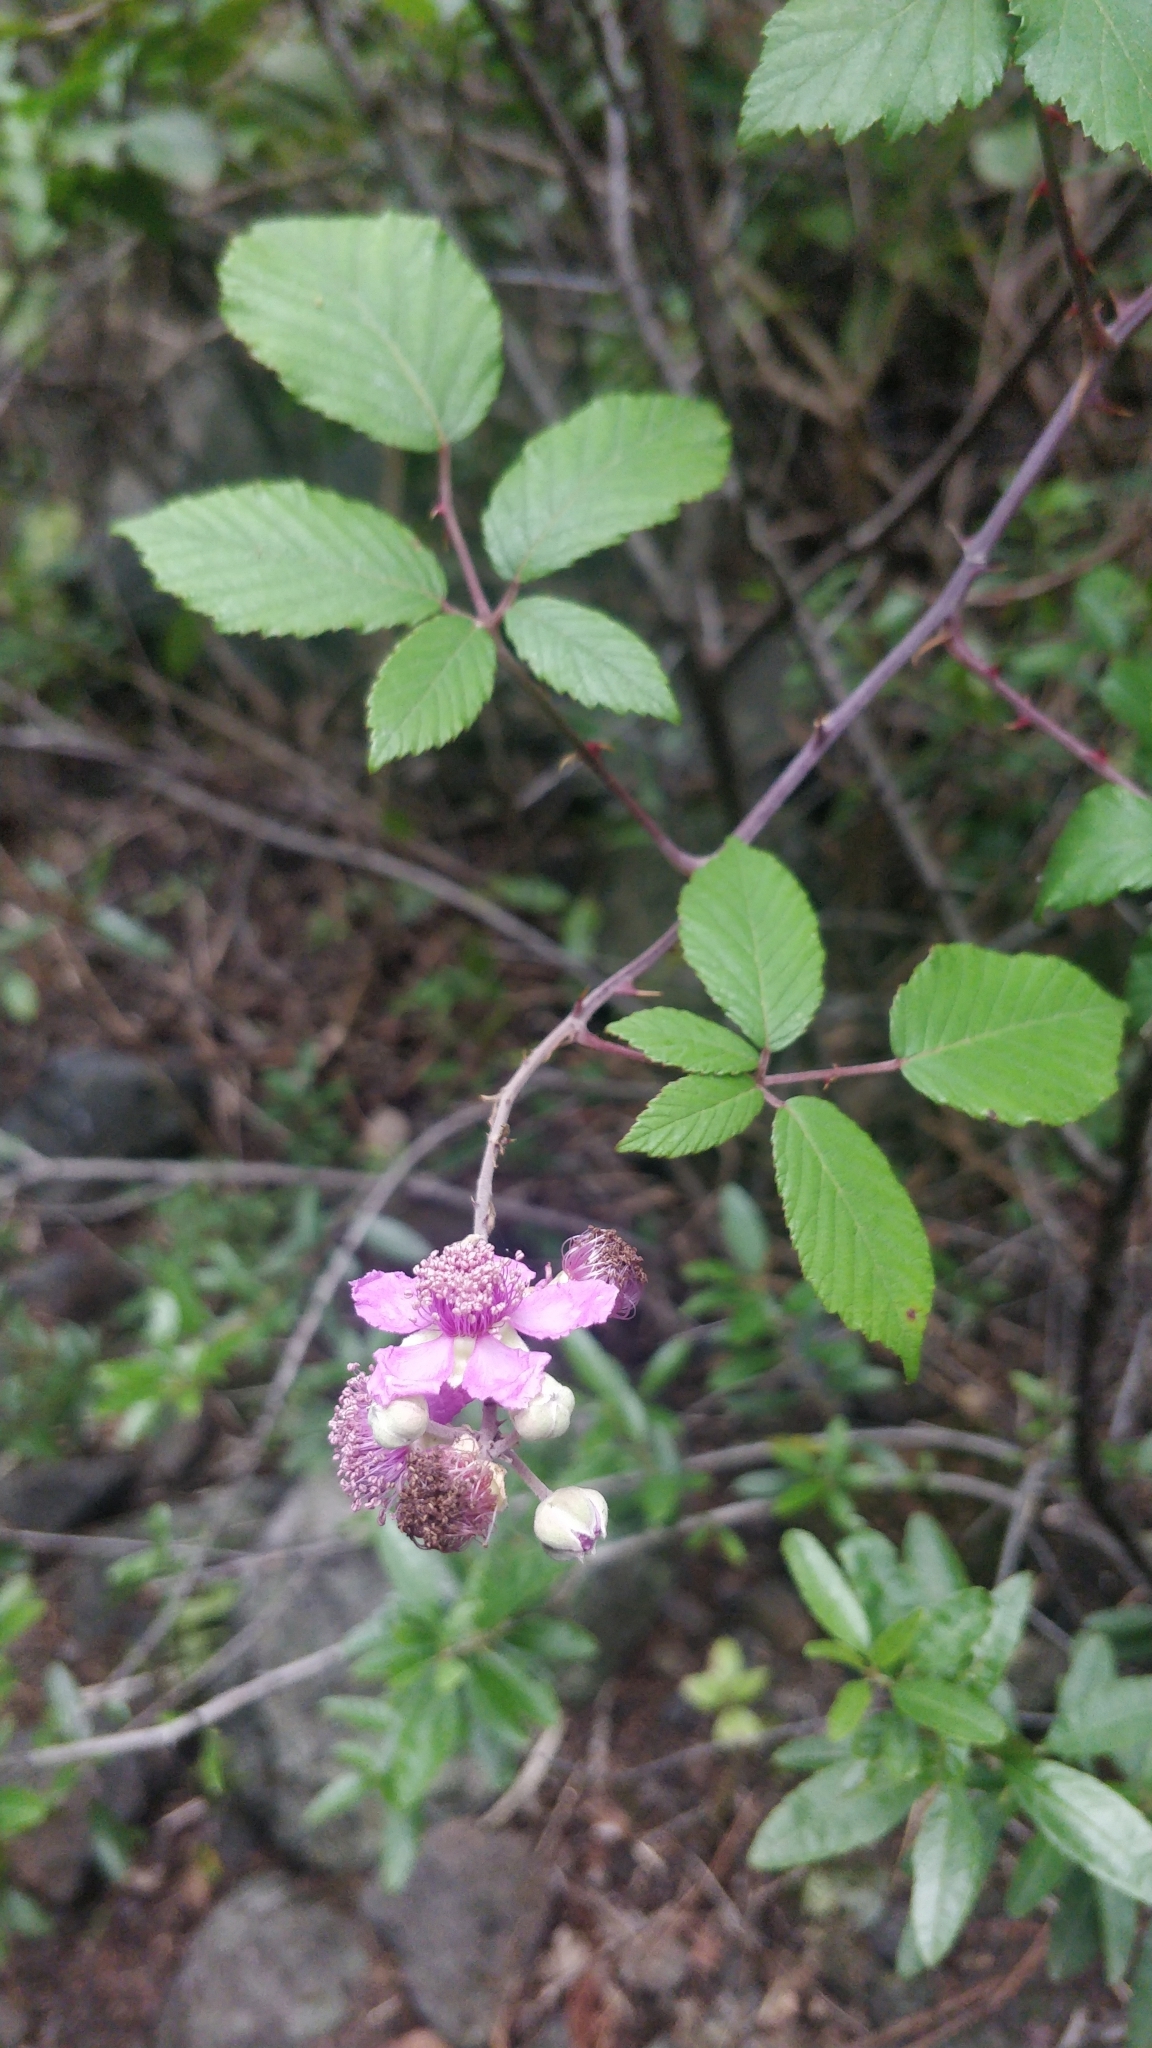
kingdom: Plantae
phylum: Tracheophyta
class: Magnoliopsida
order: Rosales
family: Rosaceae
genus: Rubus
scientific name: Rubus ulmifolius
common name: Elmleaf blackberry
